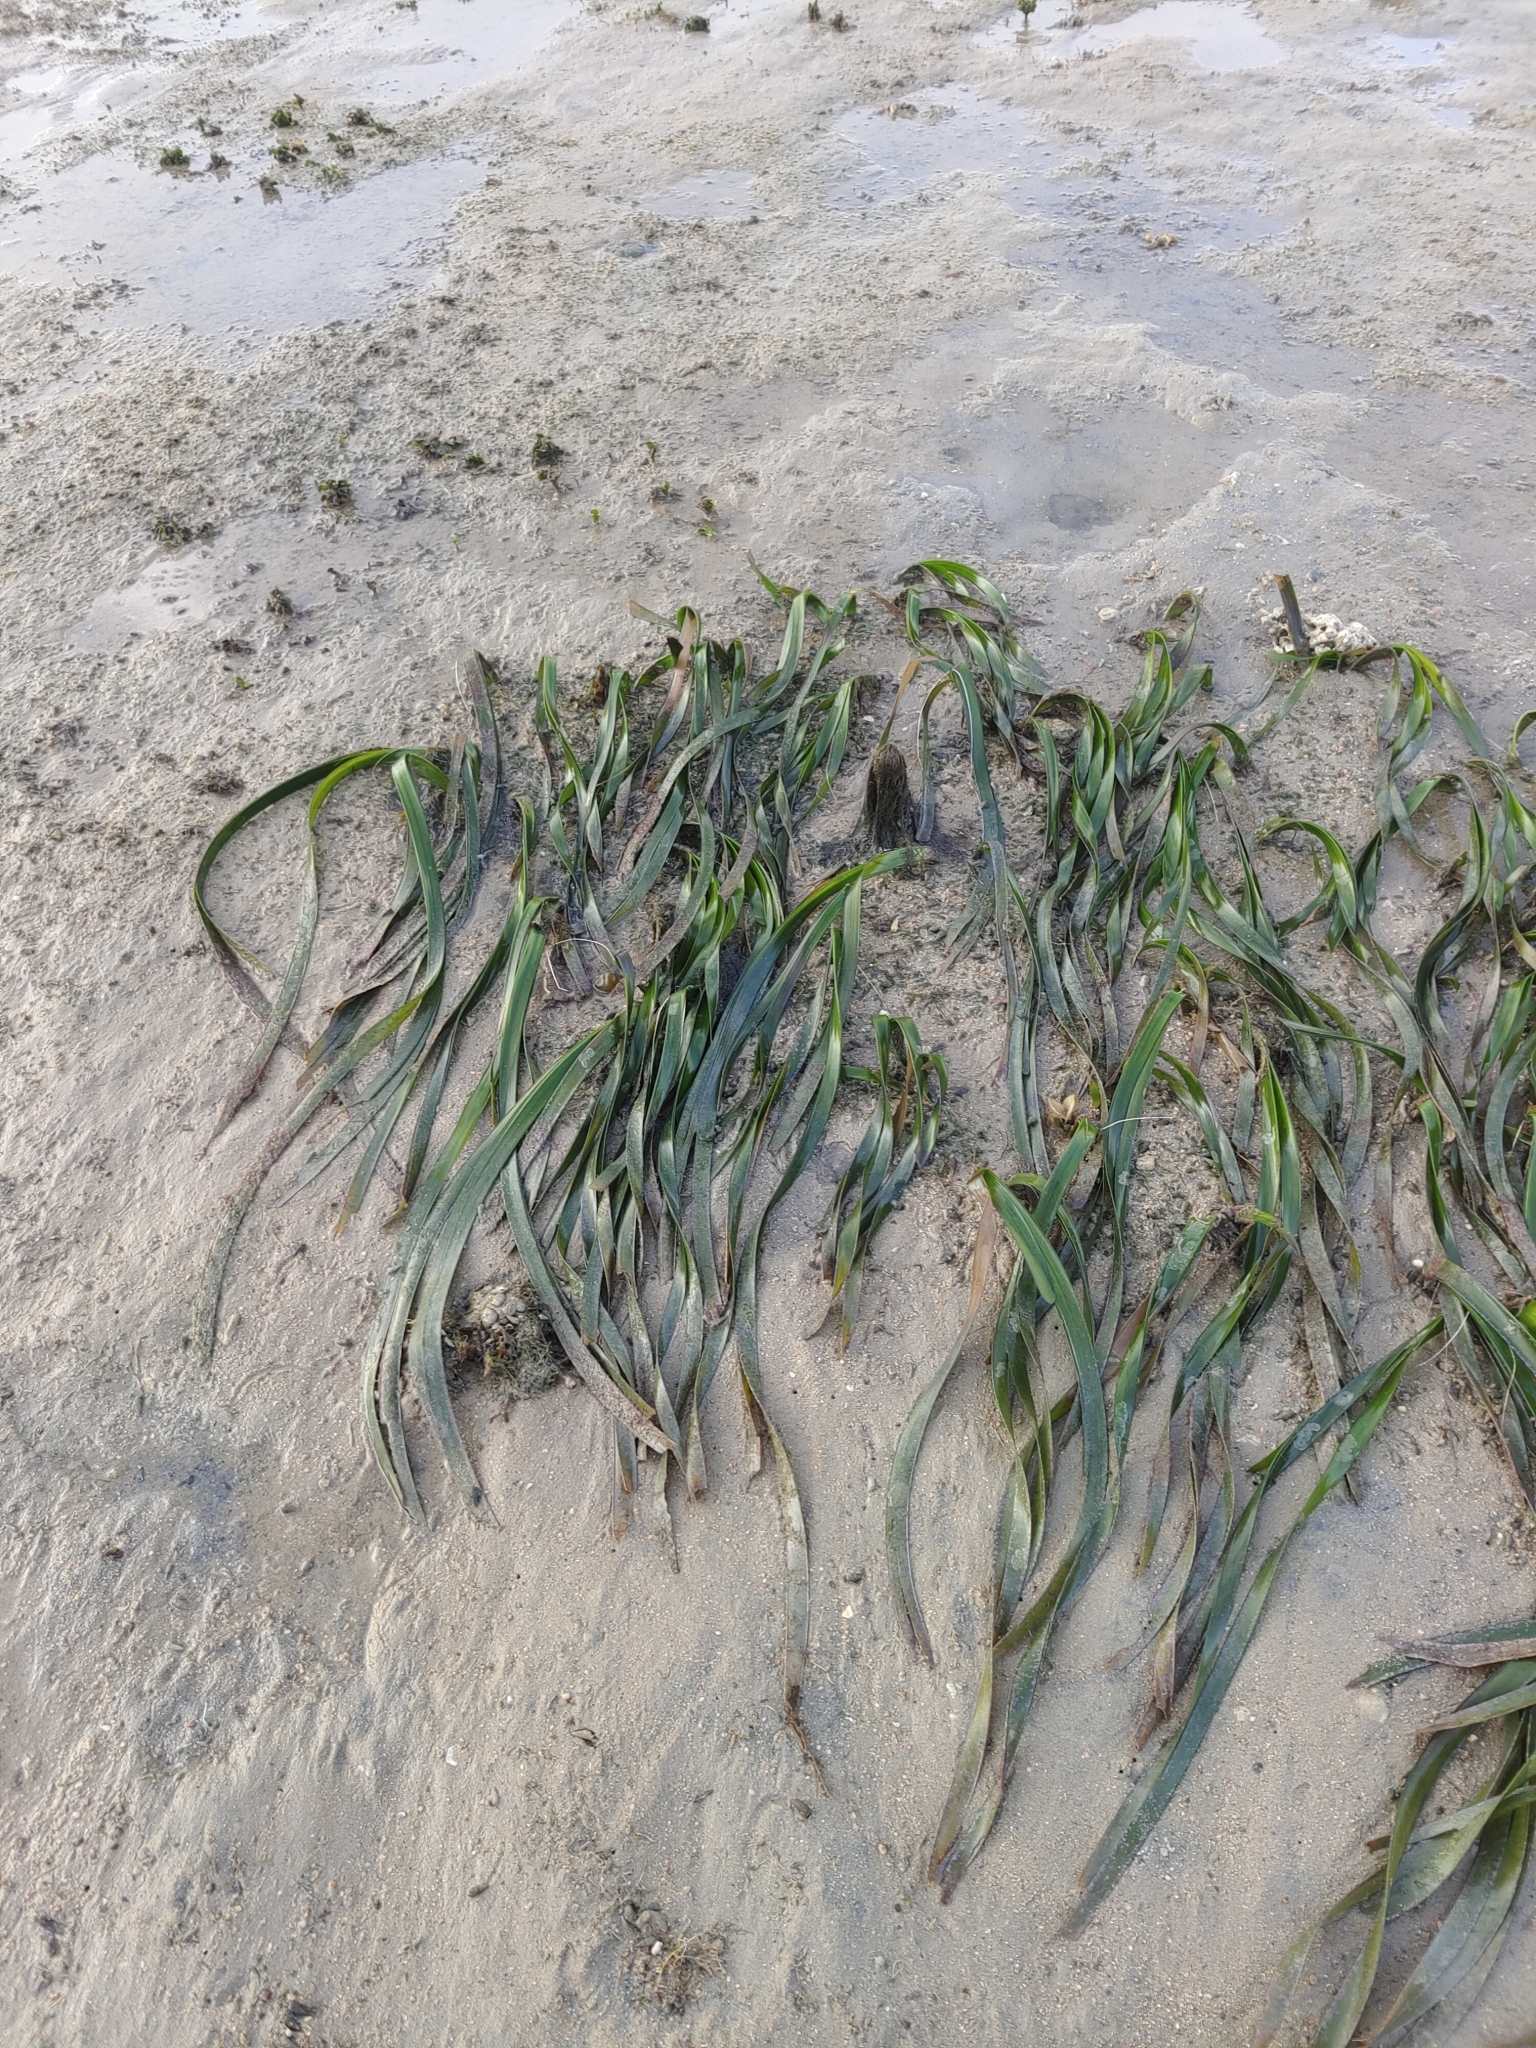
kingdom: Plantae
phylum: Tracheophyta
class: Liliopsida
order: Alismatales
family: Hydrocharitaceae
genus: Enhalus
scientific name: Enhalus acoroides
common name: Species code: ea
